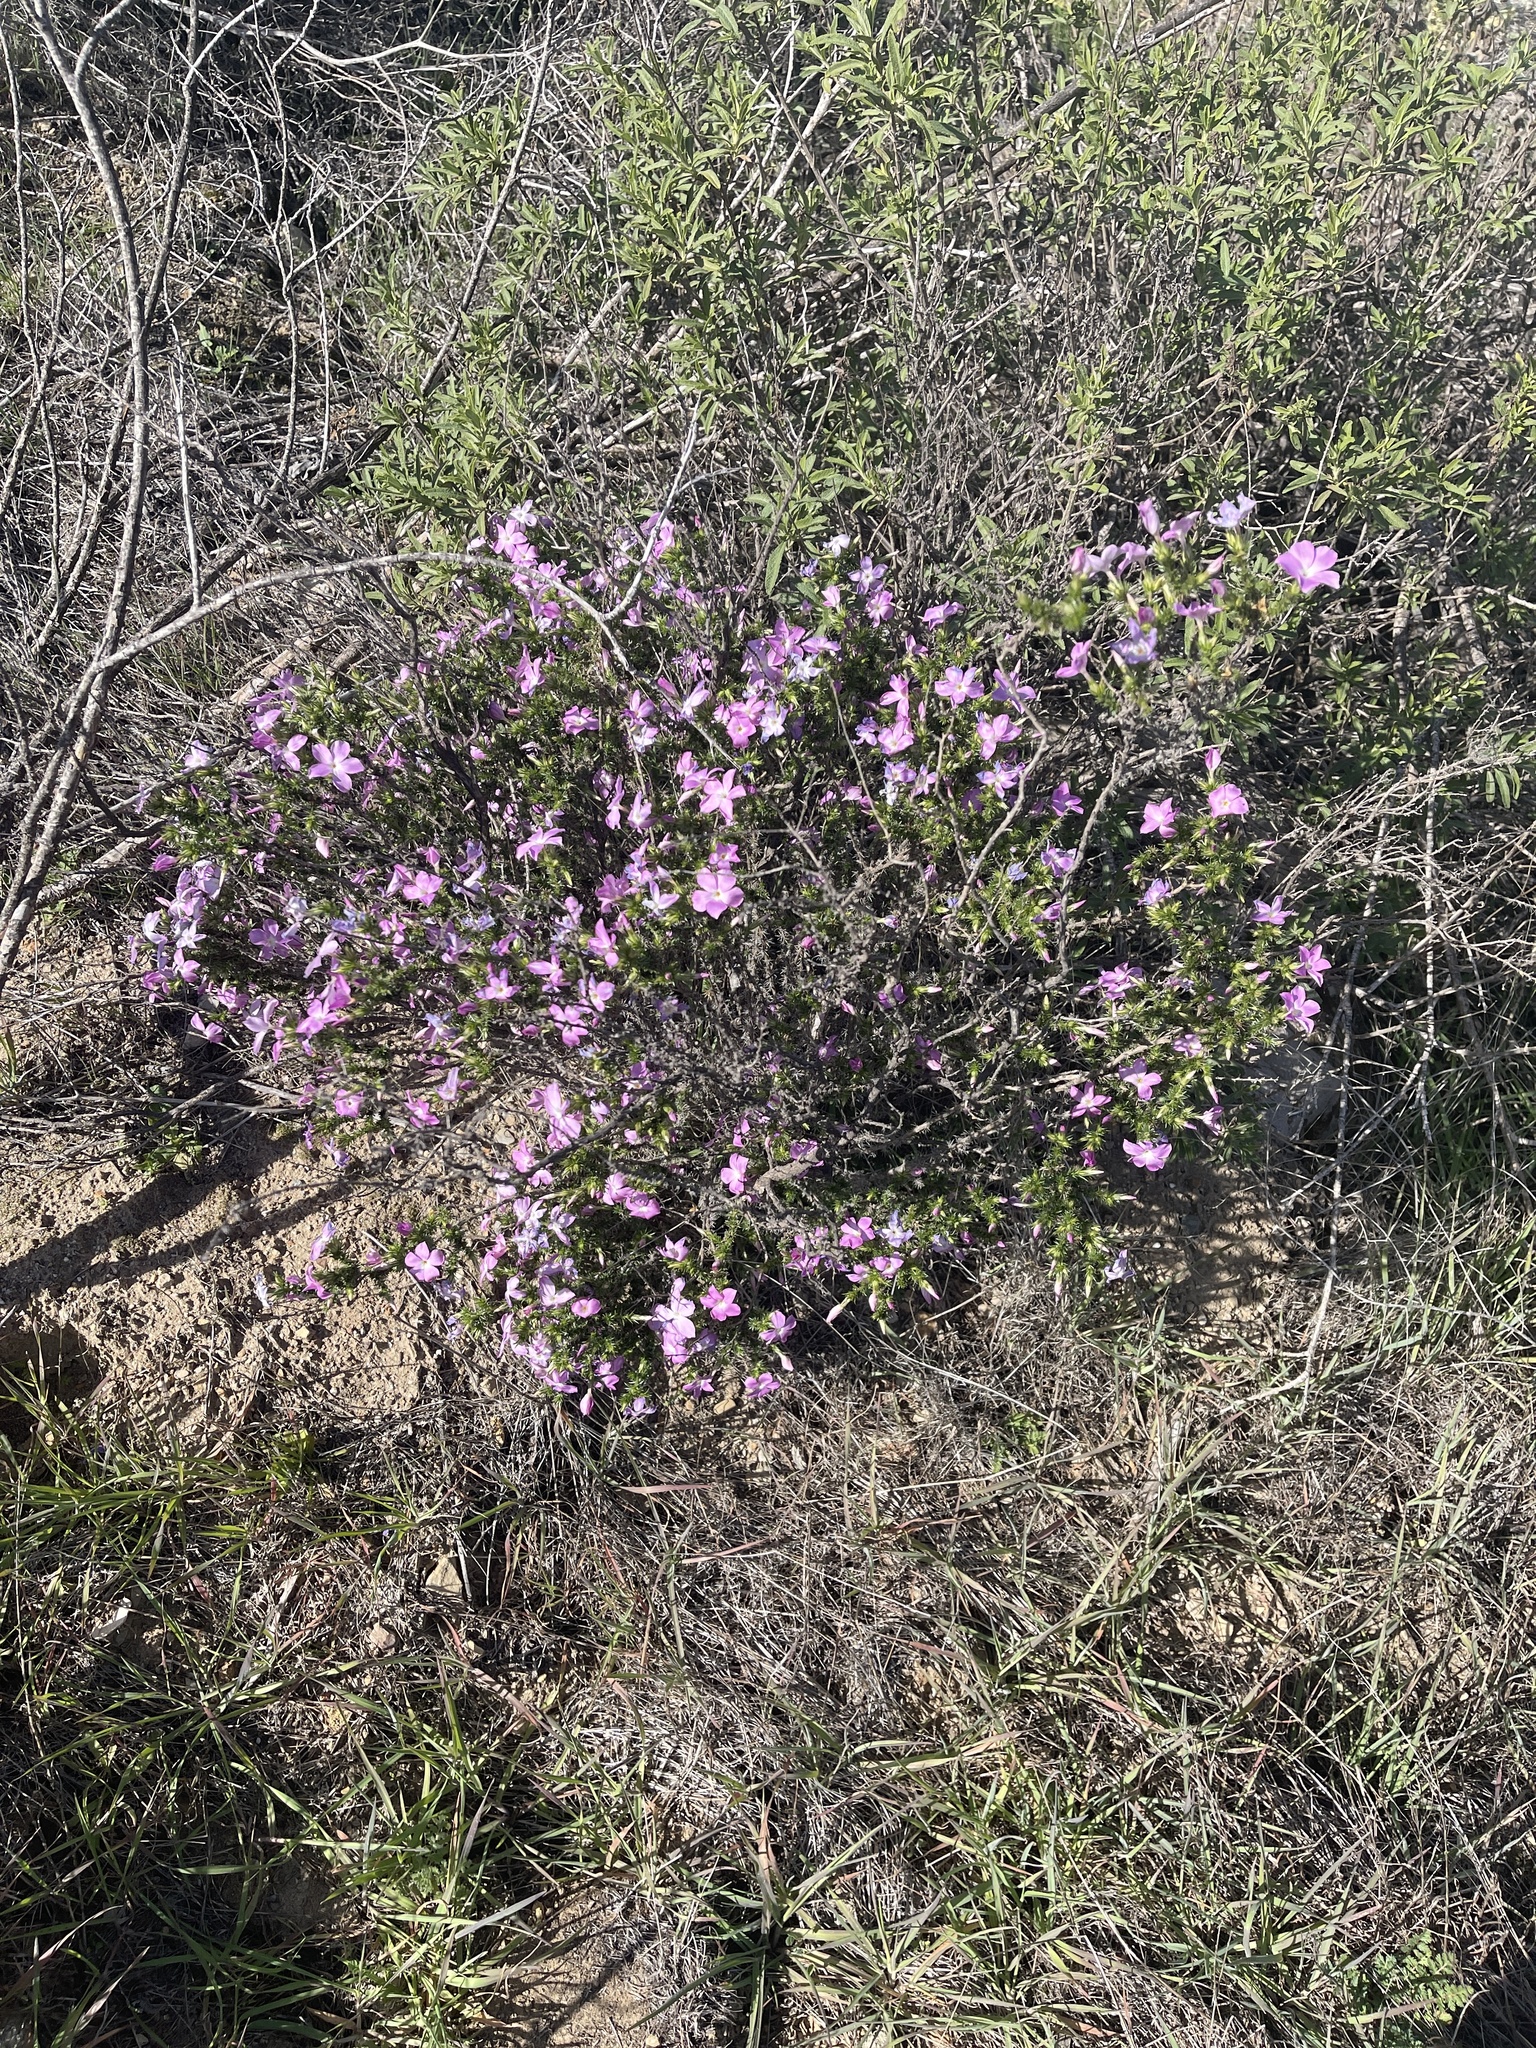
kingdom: Plantae
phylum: Tracheophyta
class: Magnoliopsida
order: Ericales
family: Polemoniaceae
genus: Linanthus
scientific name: Linanthus californicus
